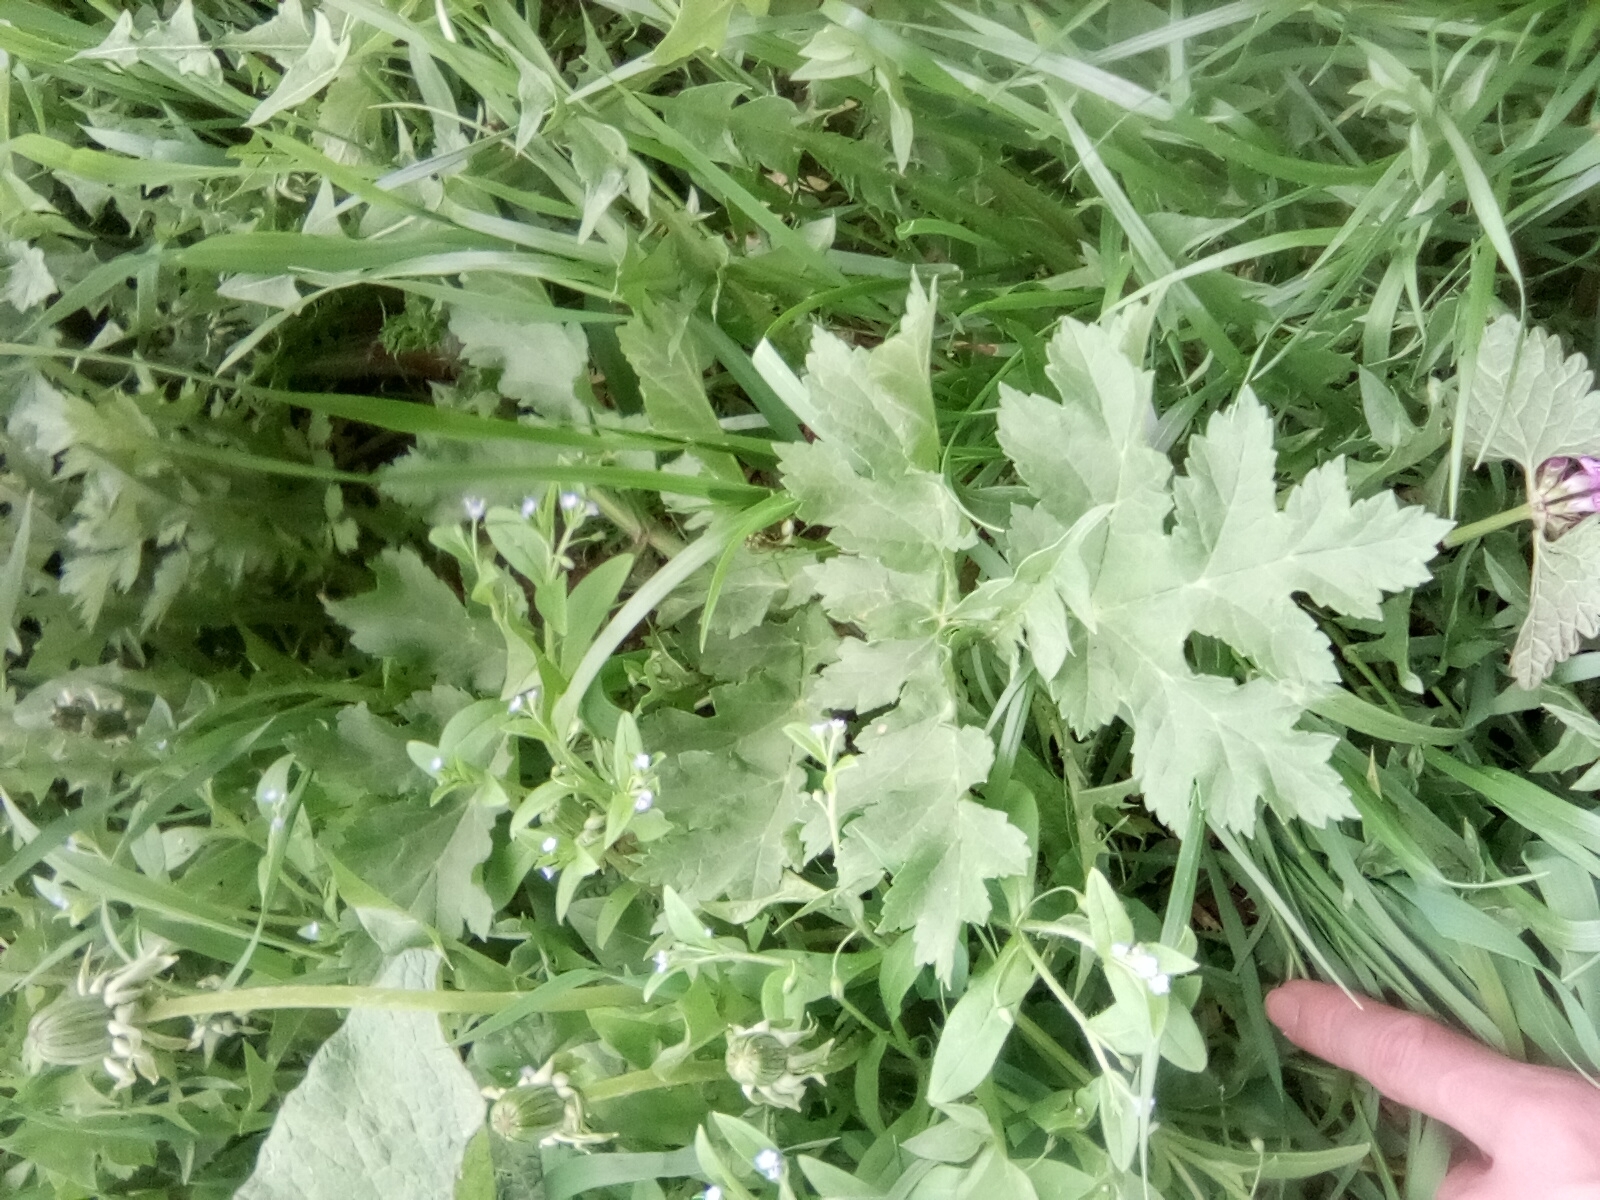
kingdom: Plantae
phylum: Tracheophyta
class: Magnoliopsida
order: Apiales
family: Apiaceae
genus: Heracleum
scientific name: Heracleum sphondylium
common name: Hogweed
